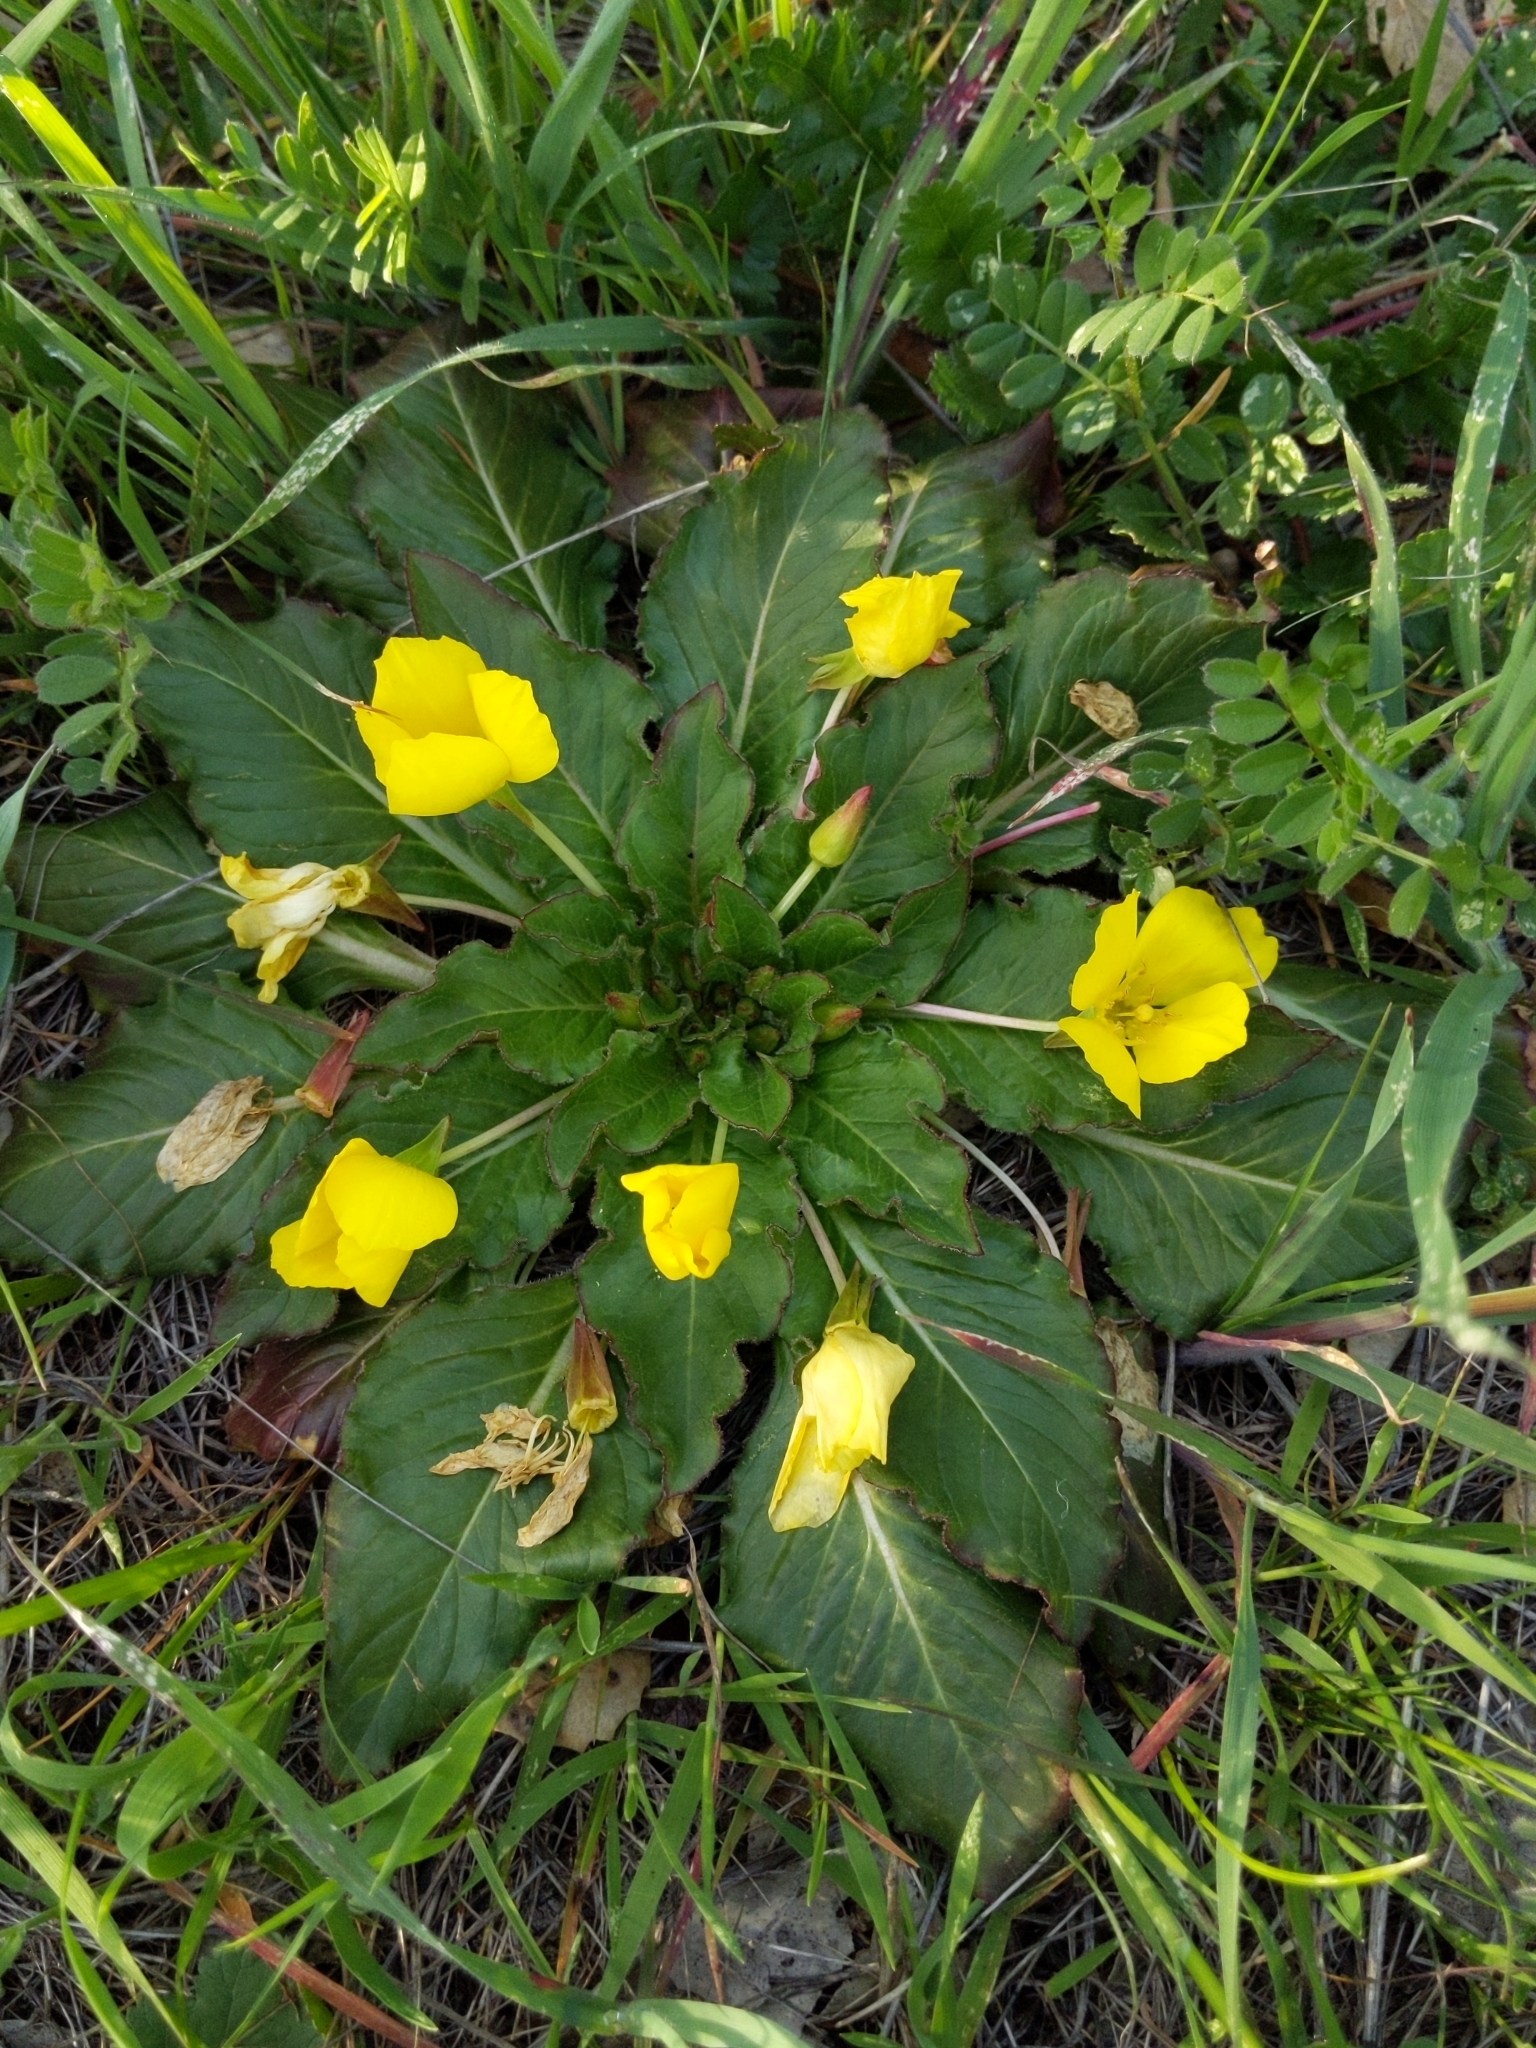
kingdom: Plantae
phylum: Tracheophyta
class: Magnoliopsida
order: Myrtales
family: Onagraceae
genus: Taraxia
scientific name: Taraxia ovata
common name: Goldeneggs
